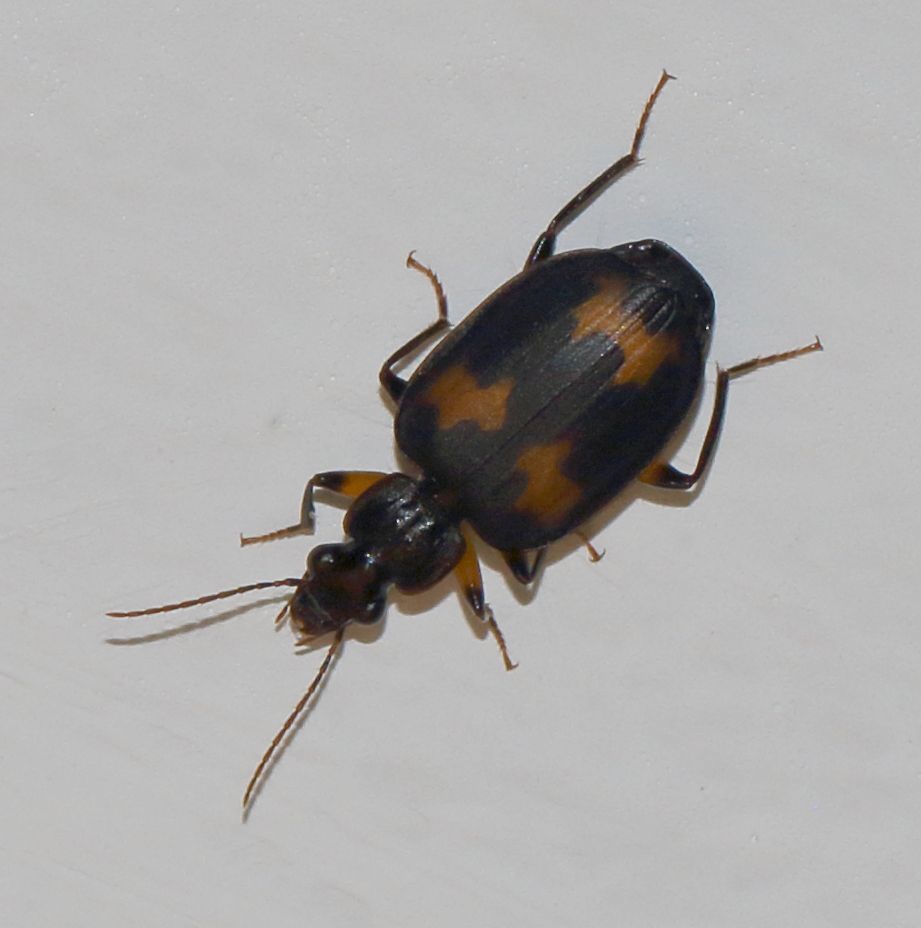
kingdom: Animalia
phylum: Arthropoda
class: Insecta
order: Coleoptera
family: Carabidae
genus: Thyreopterus
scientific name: Thyreopterus flavosignatus
